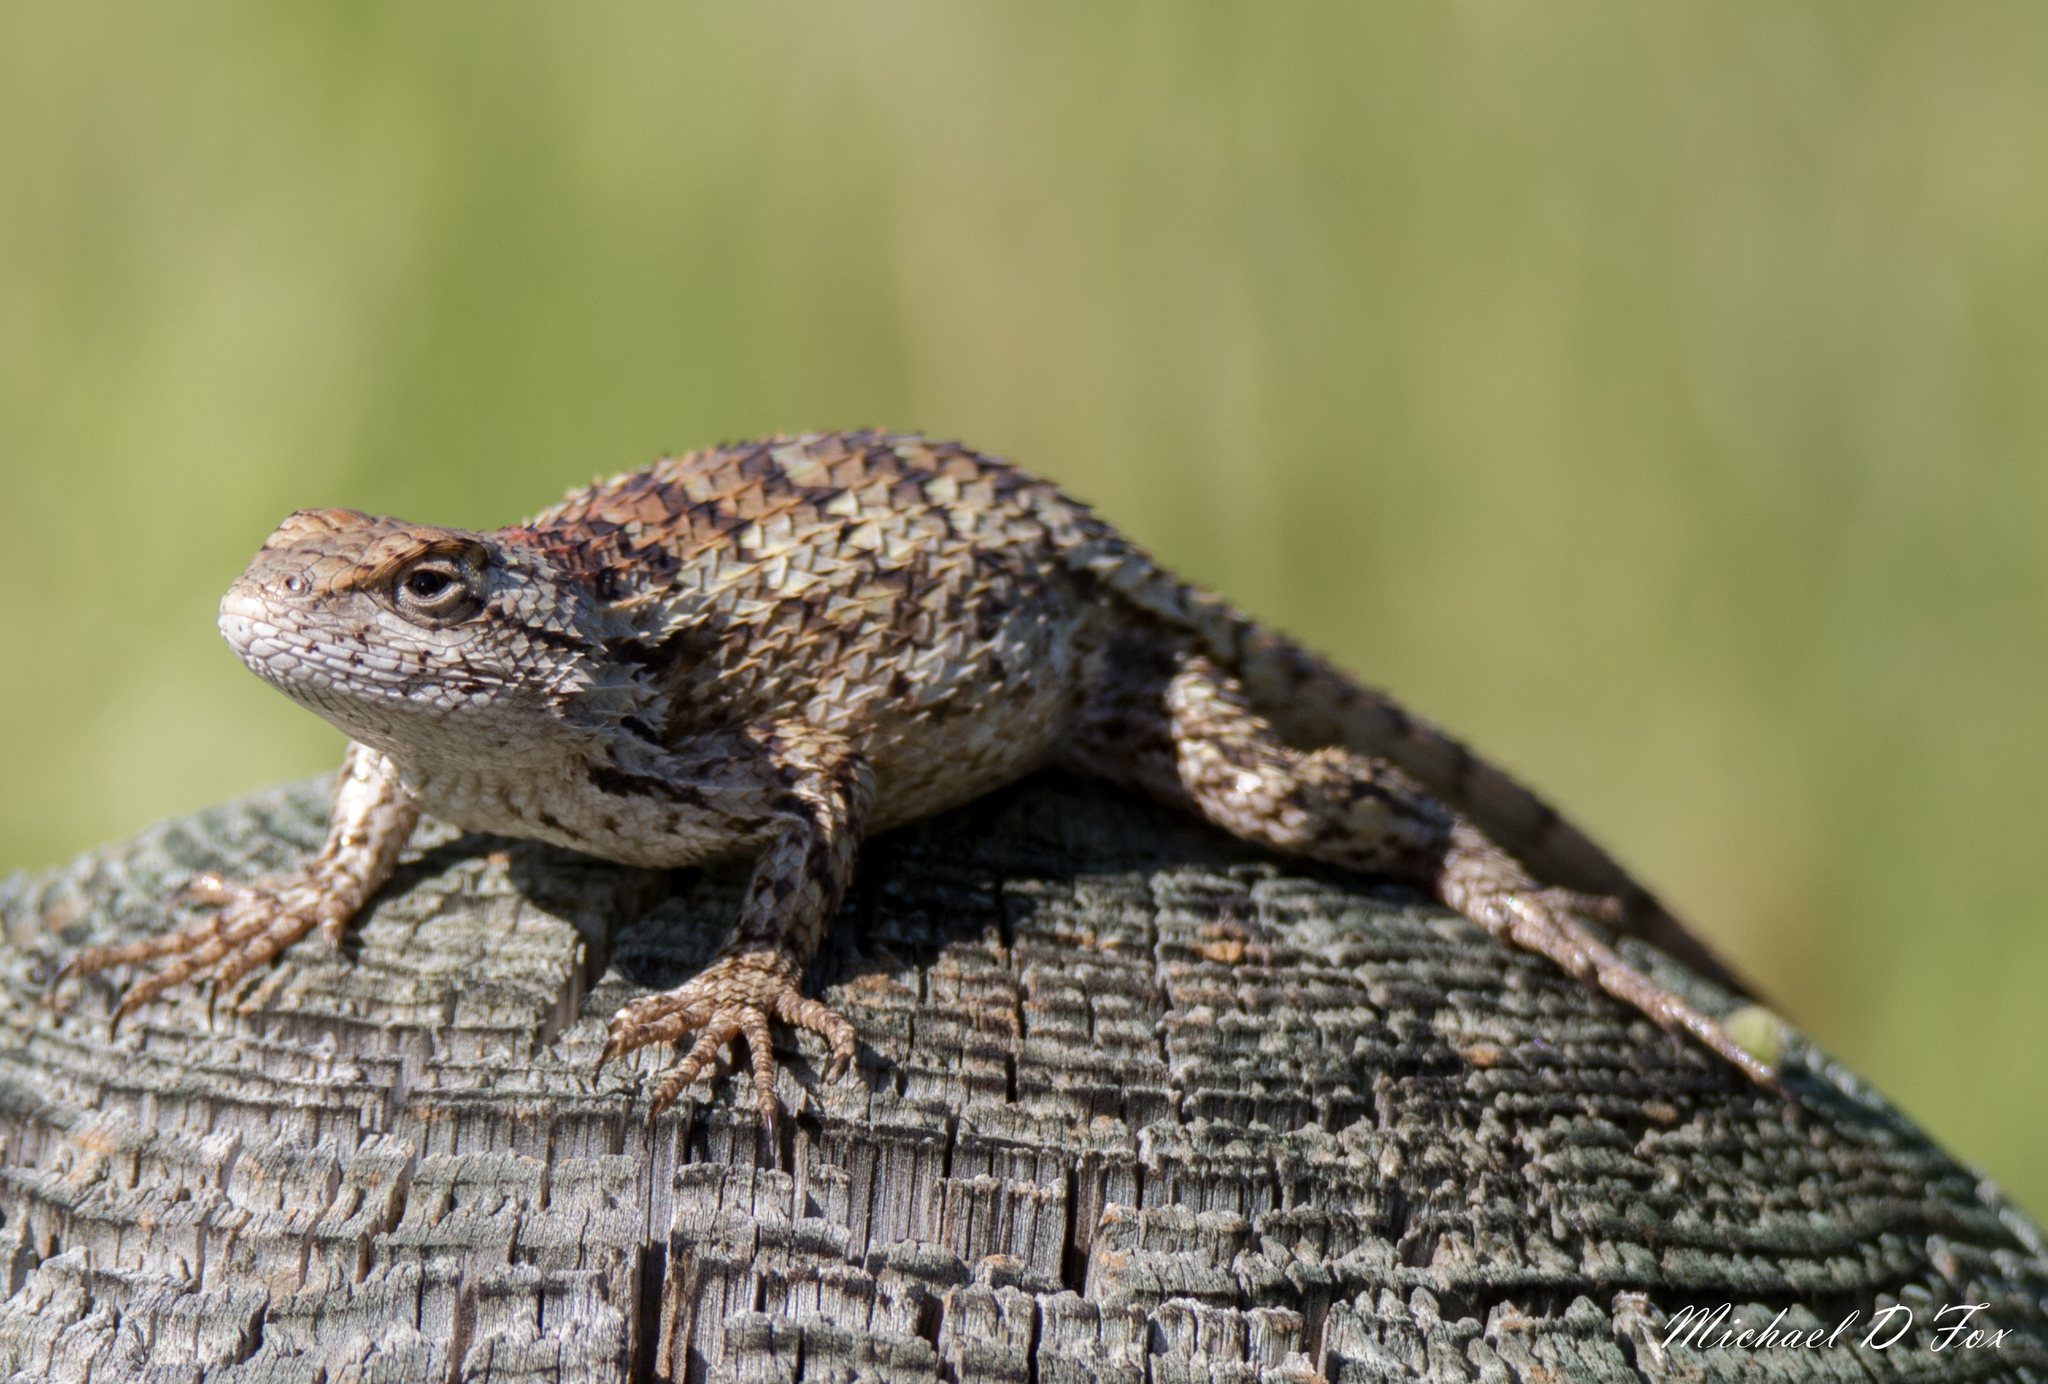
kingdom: Animalia
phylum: Chordata
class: Squamata
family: Phrynosomatidae
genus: Sceloporus
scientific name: Sceloporus olivaceus
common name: Texas spiny lizard
